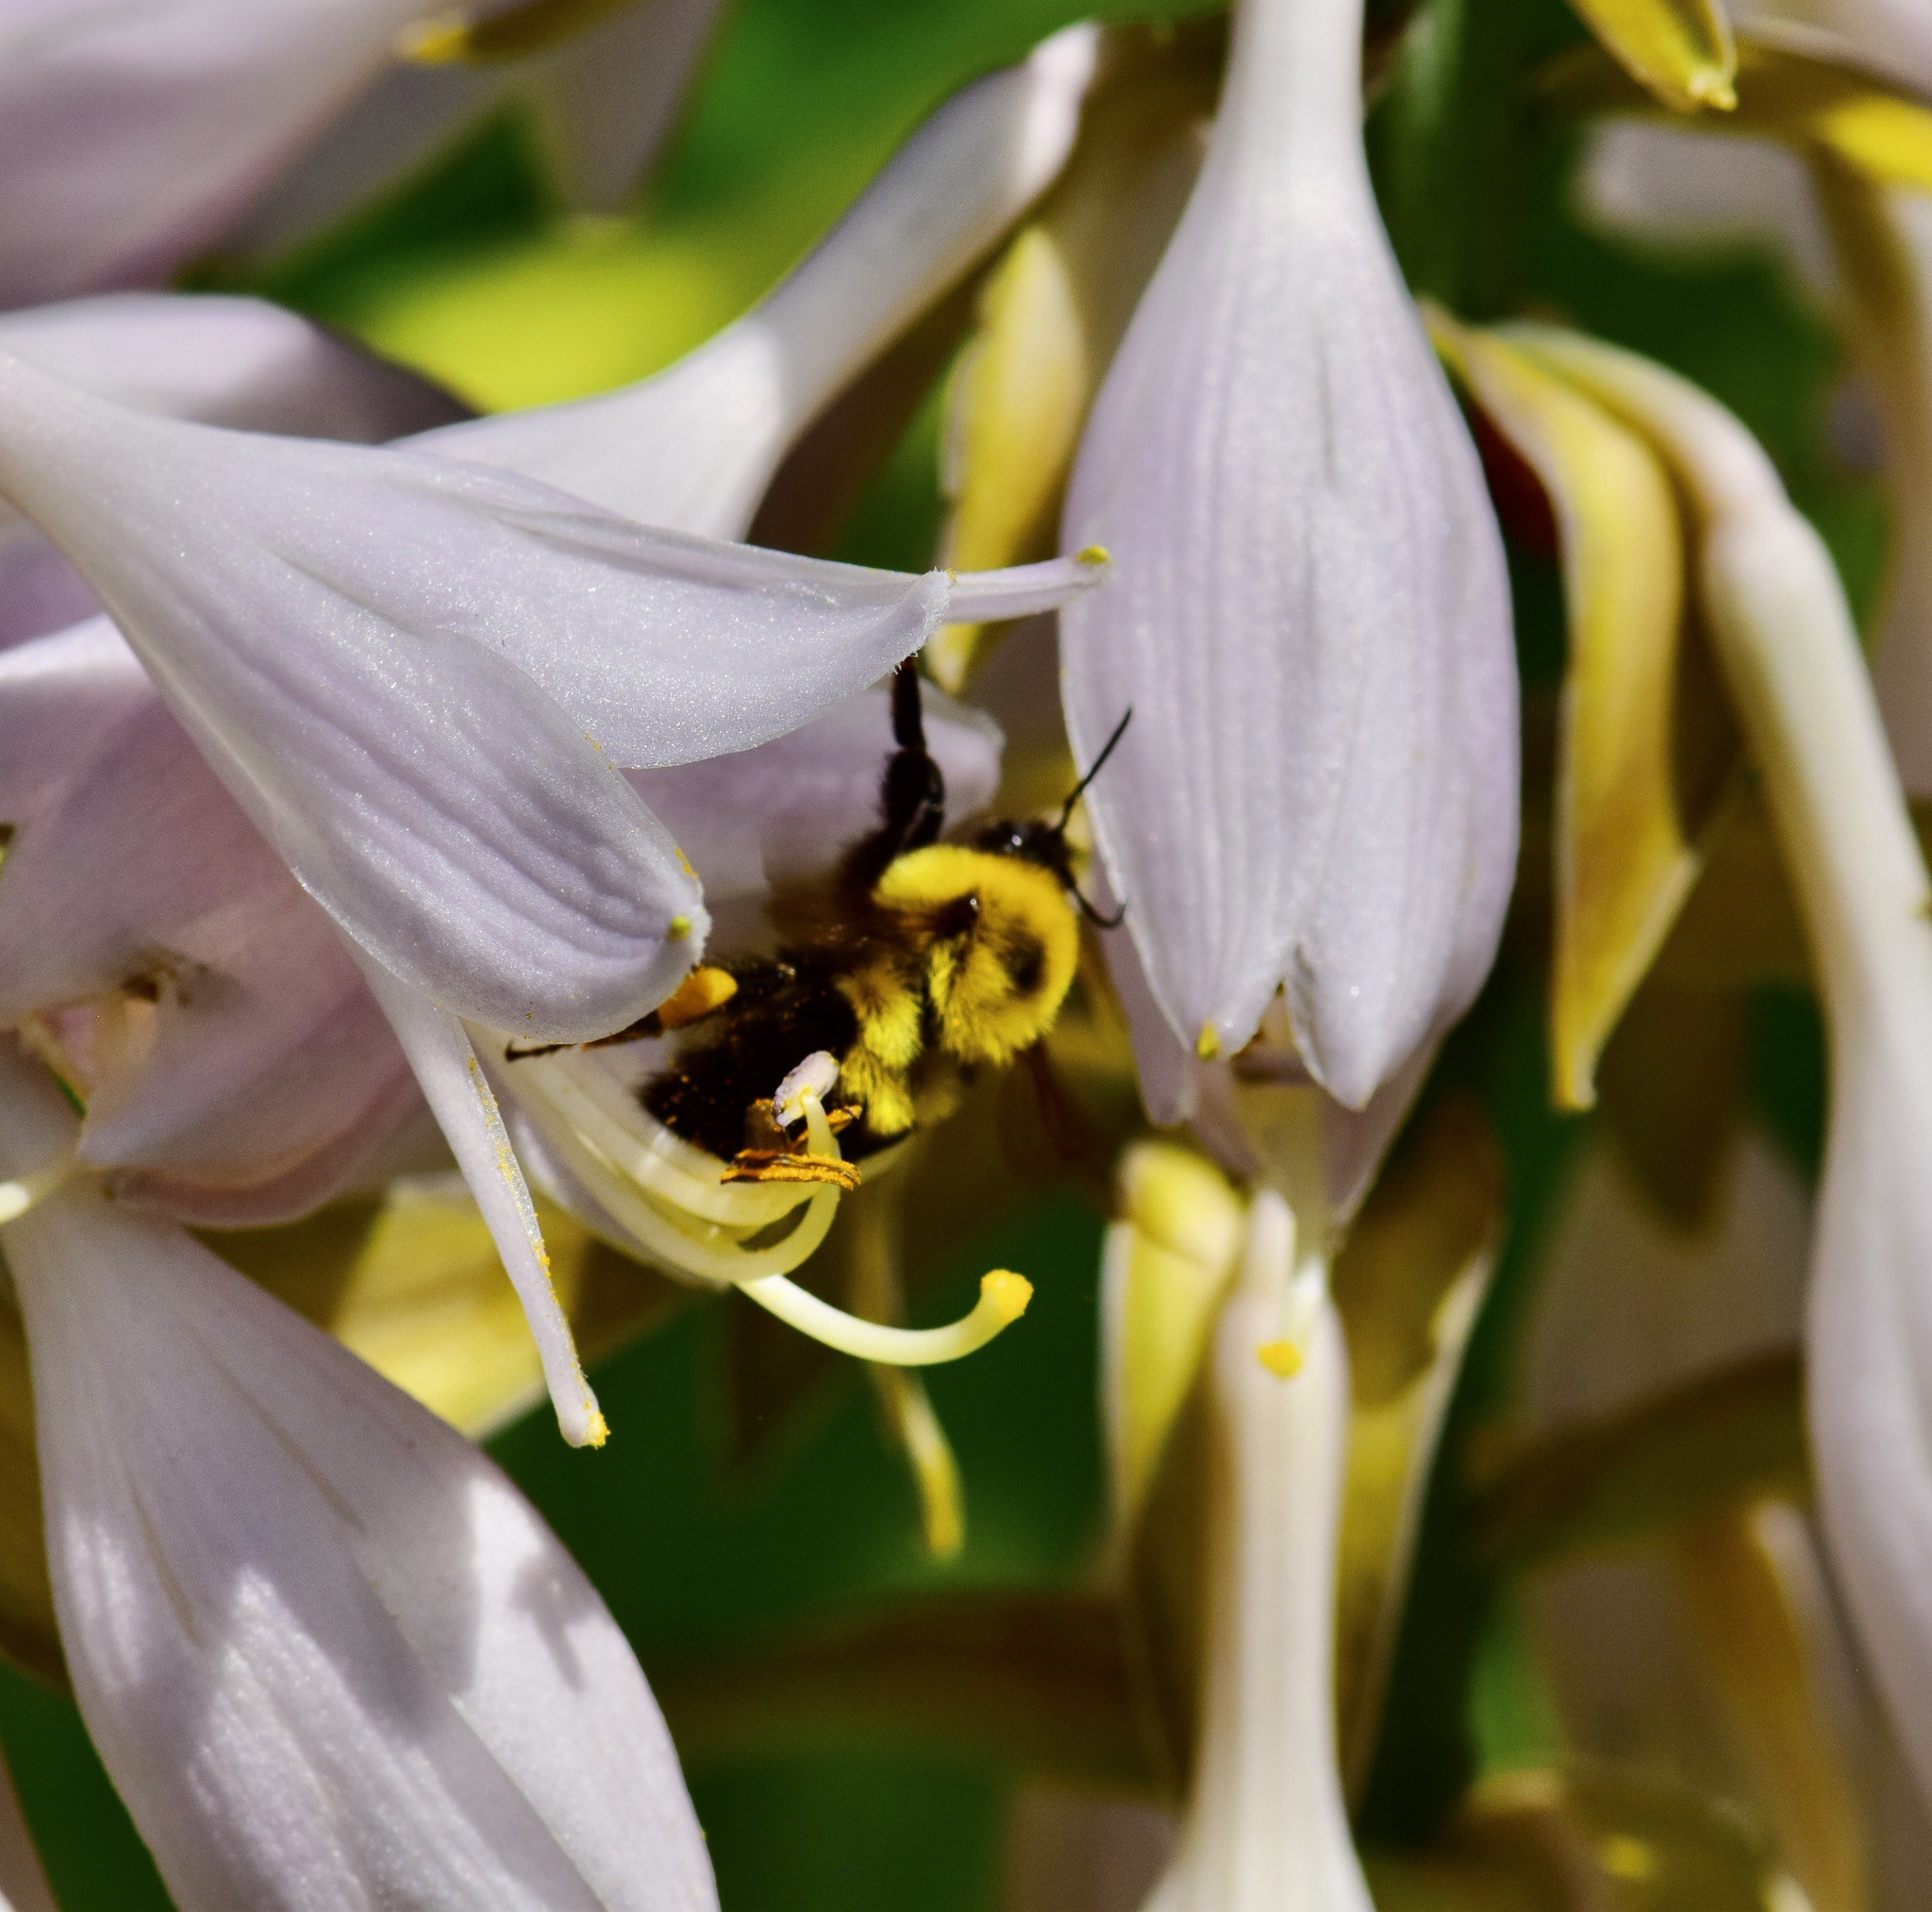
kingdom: Animalia
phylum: Arthropoda
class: Insecta
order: Hymenoptera
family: Apidae
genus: Bombus
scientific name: Bombus bimaculatus
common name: Two-spotted bumble bee
